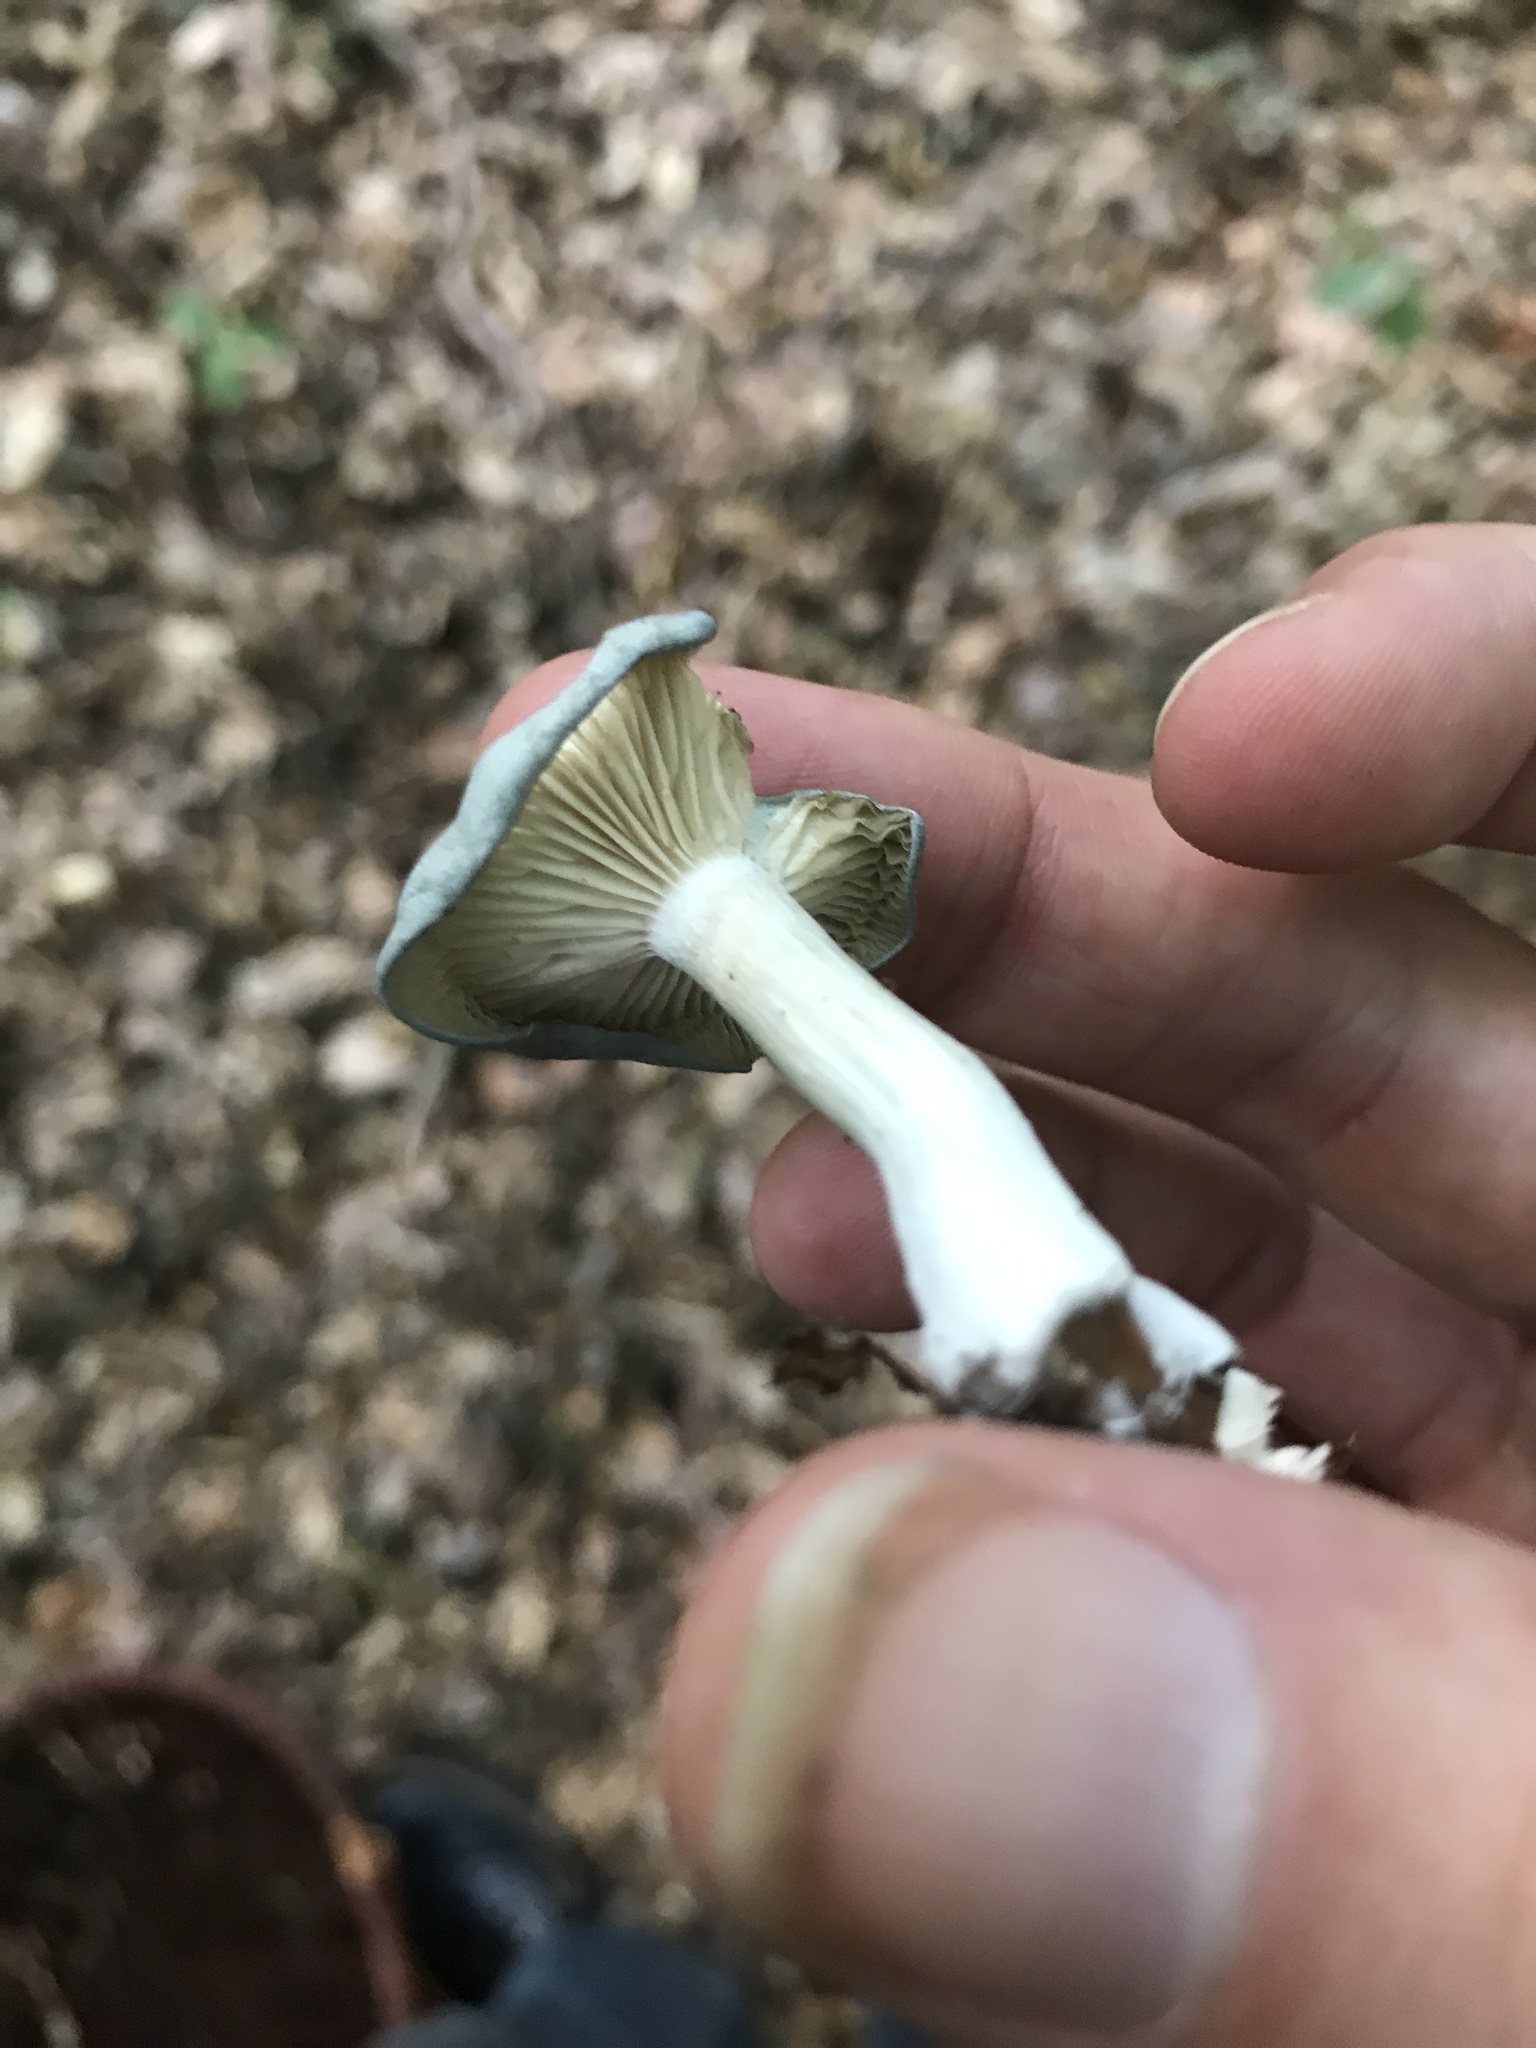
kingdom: Fungi
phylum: Basidiomycota
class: Agaricomycetes
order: Agaricales
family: Tricholomataceae
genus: Collybia
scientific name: Collybia
